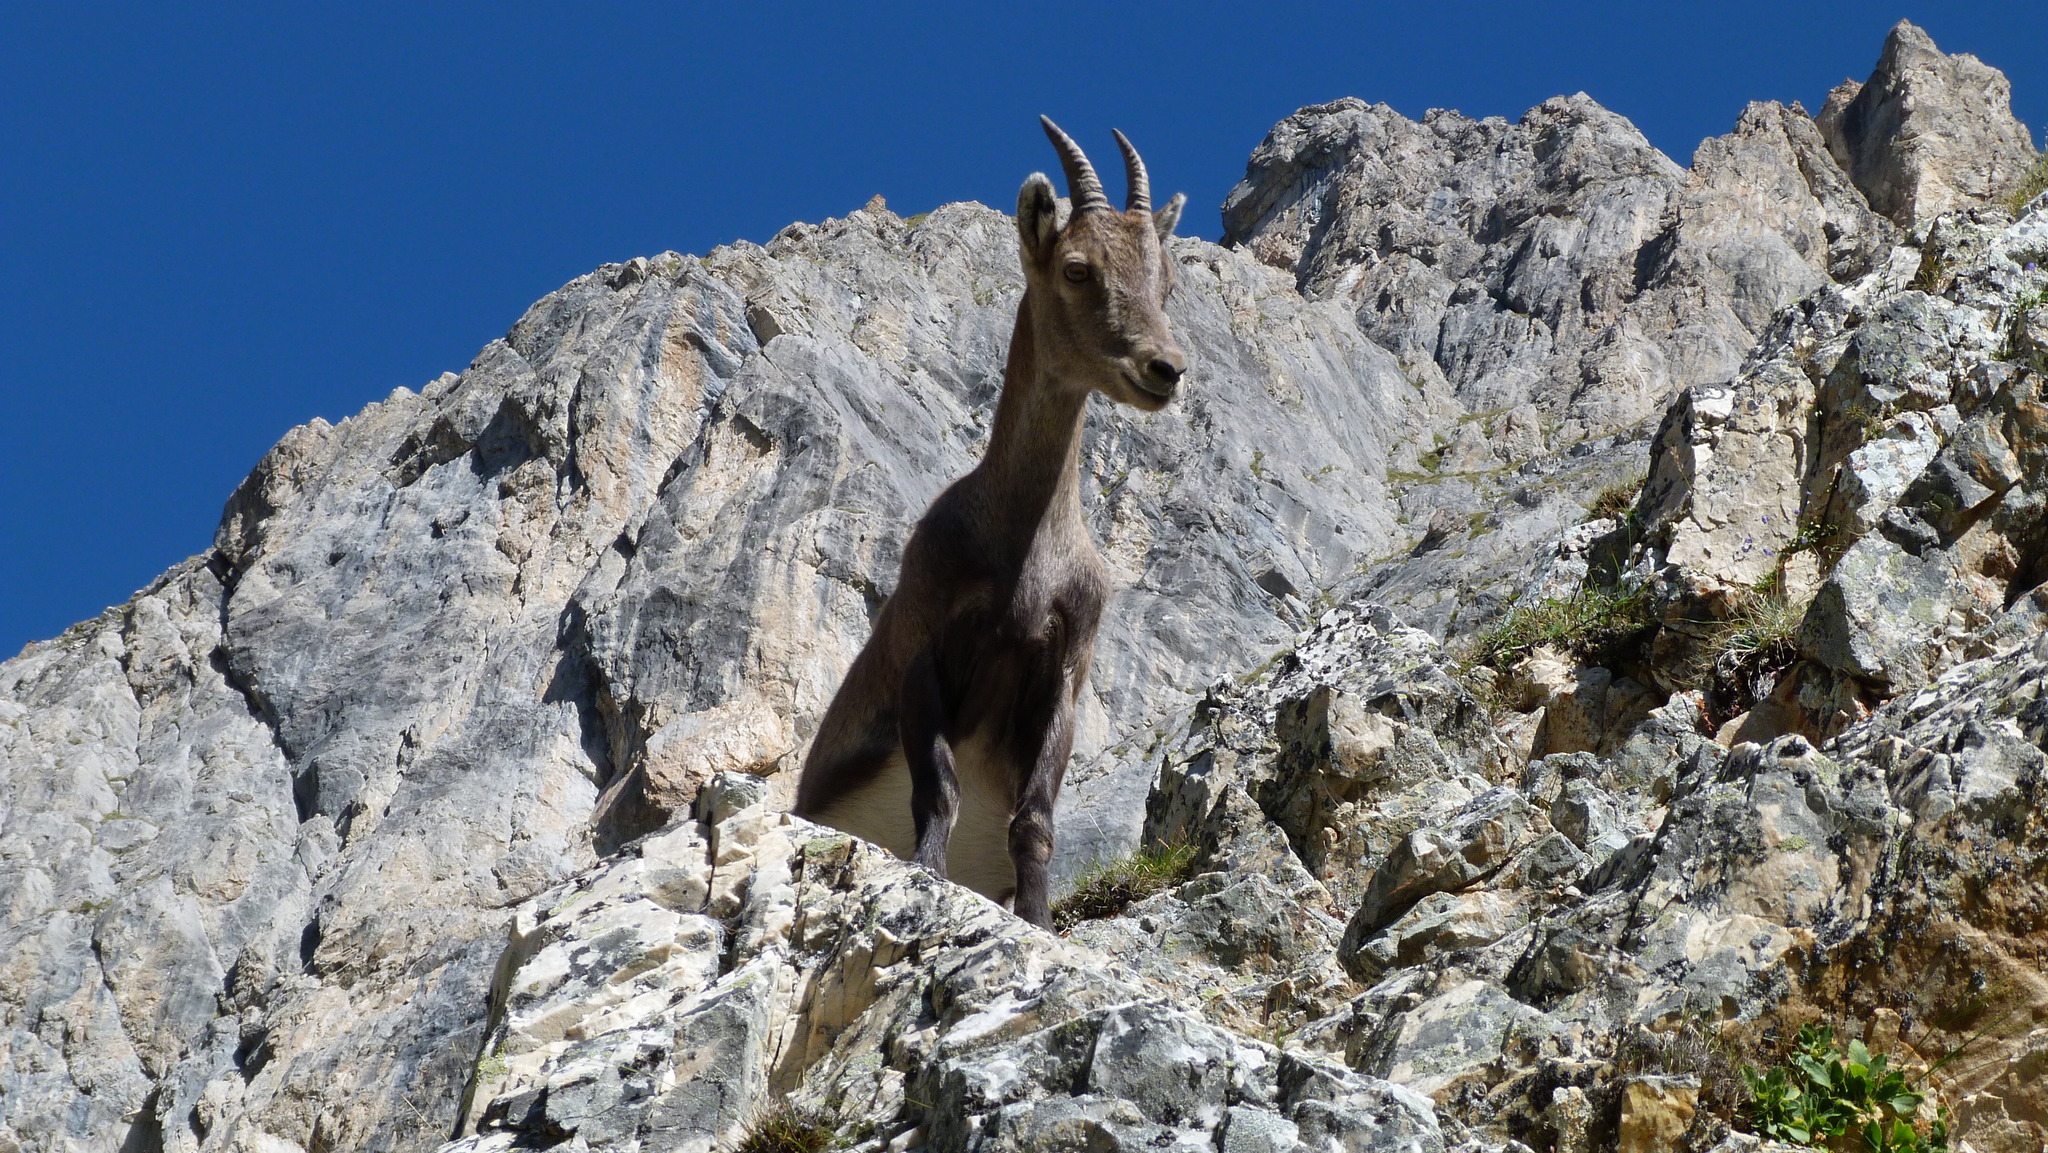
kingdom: Animalia
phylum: Chordata
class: Mammalia
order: Artiodactyla
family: Bovidae
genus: Capra
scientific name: Capra ibex
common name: Alpine ibex
